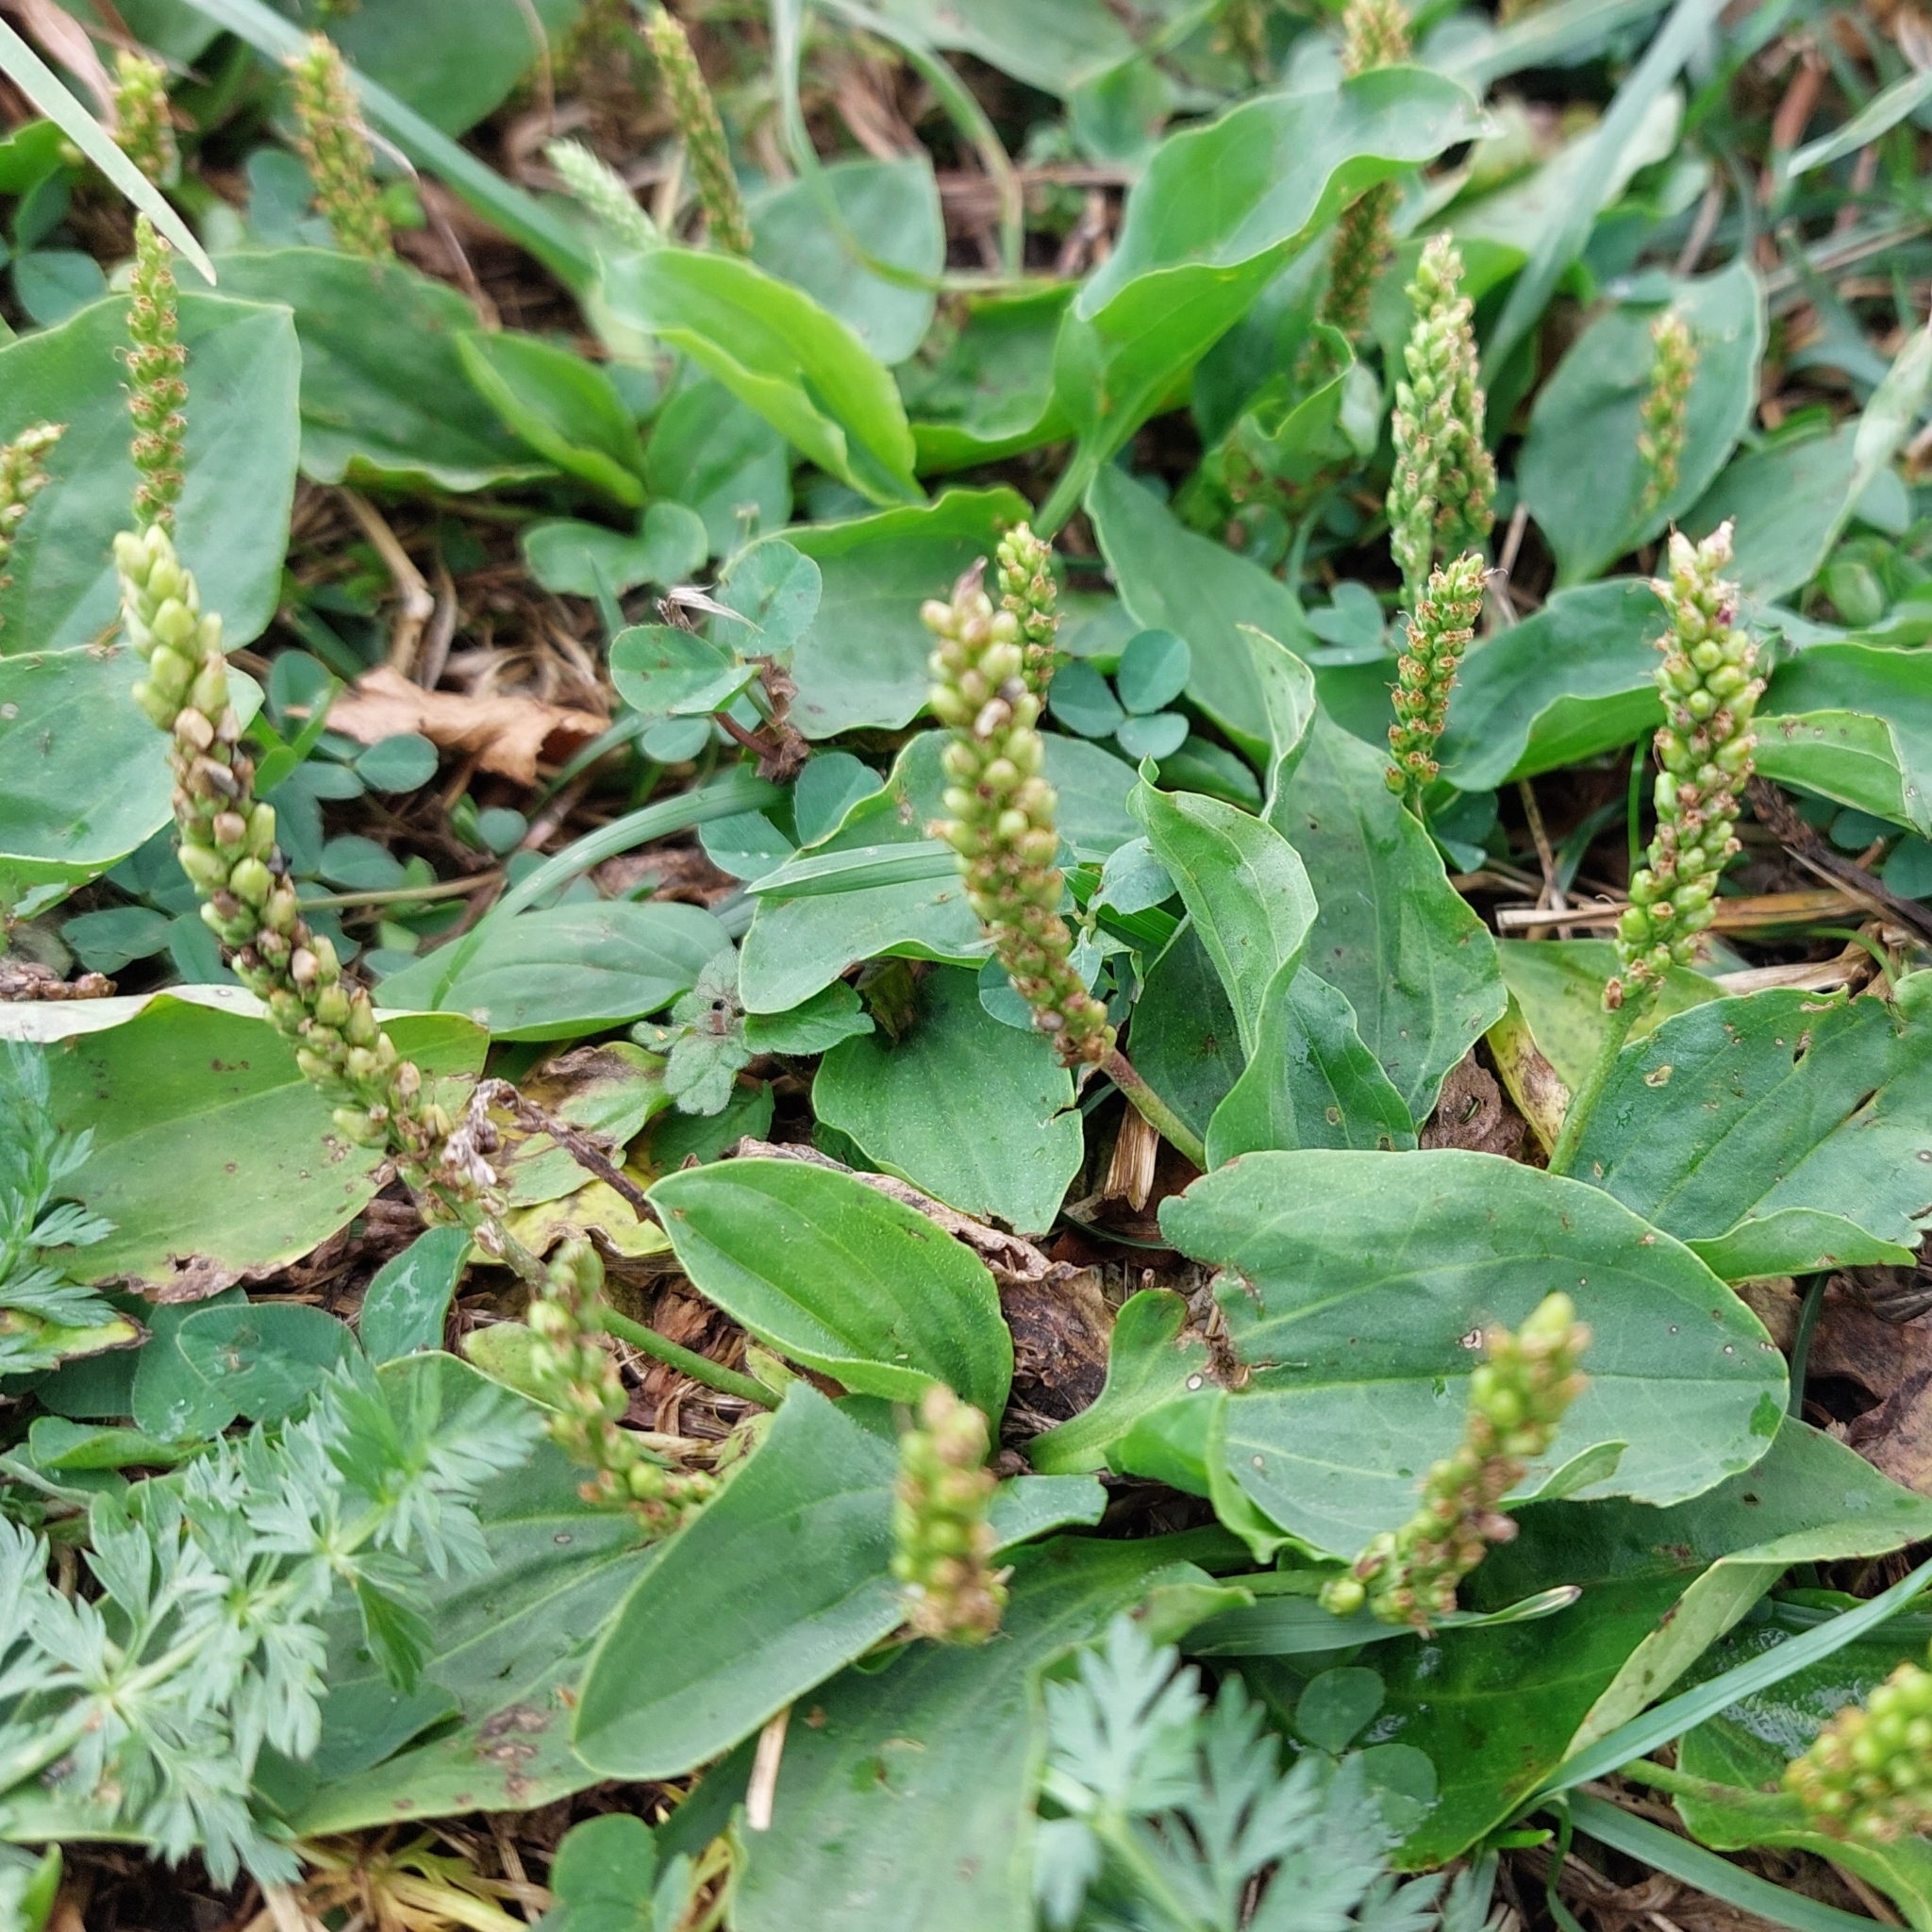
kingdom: Plantae
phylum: Tracheophyta
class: Magnoliopsida
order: Lamiales
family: Plantaginaceae
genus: Plantago
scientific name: Plantago major
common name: Common plantain
